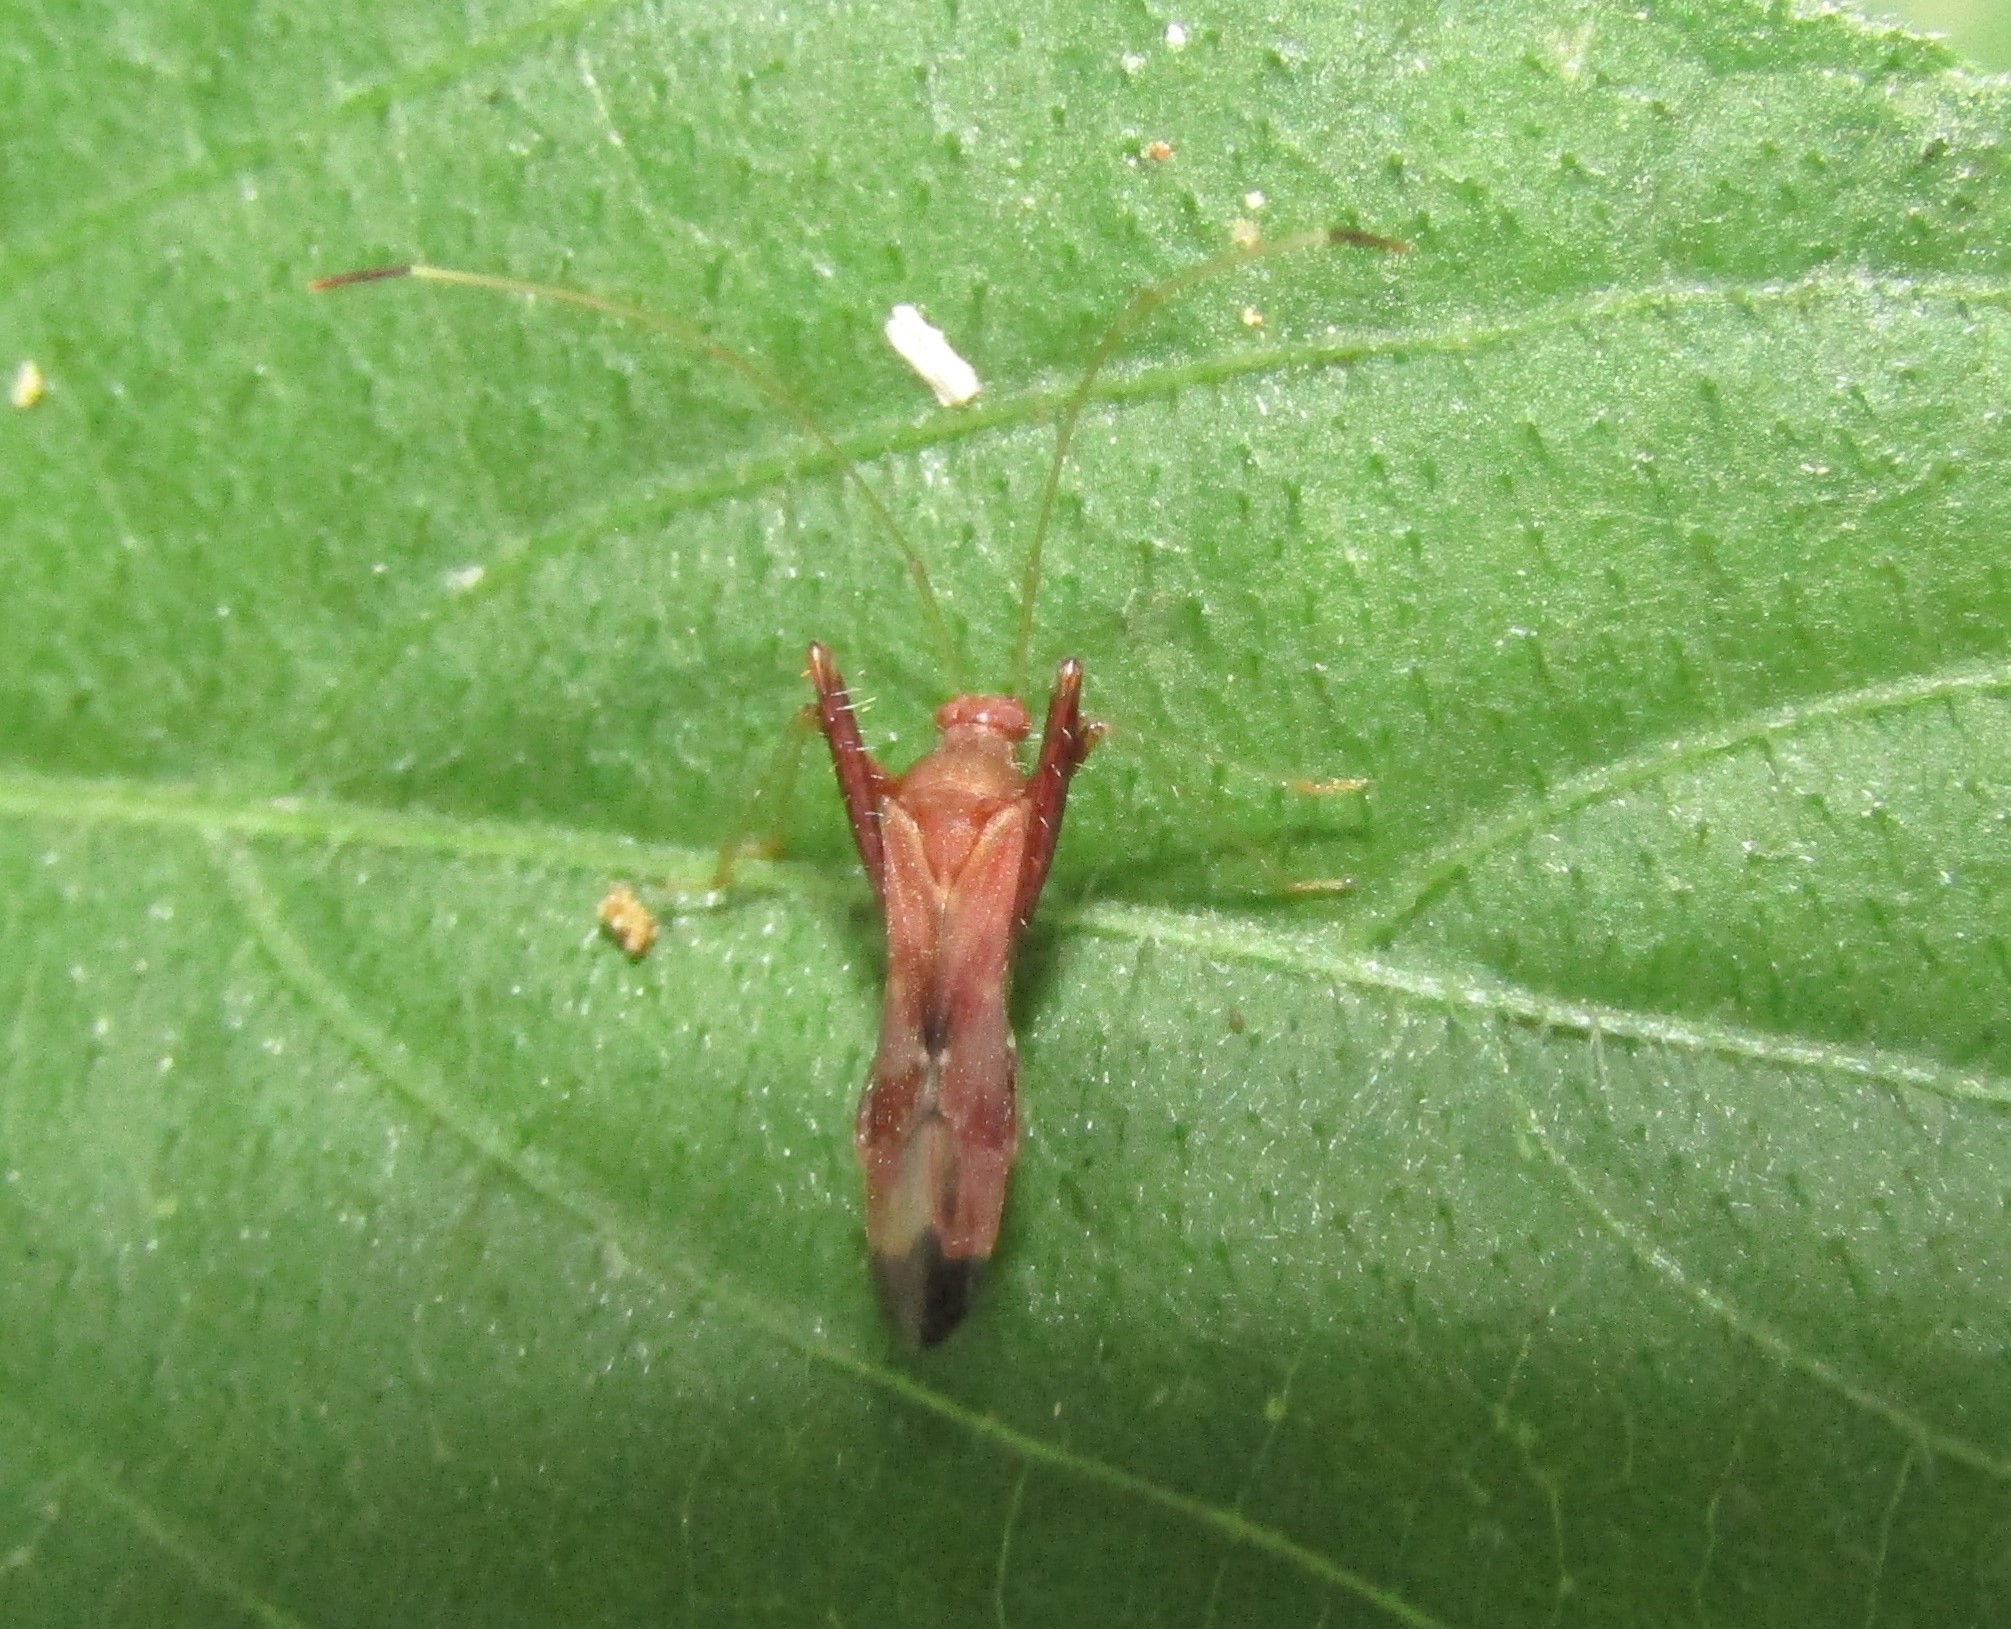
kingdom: Animalia
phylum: Arthropoda
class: Insecta
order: Hemiptera
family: Miridae
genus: Paraxenetus
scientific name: Paraxenetus guttulatus
